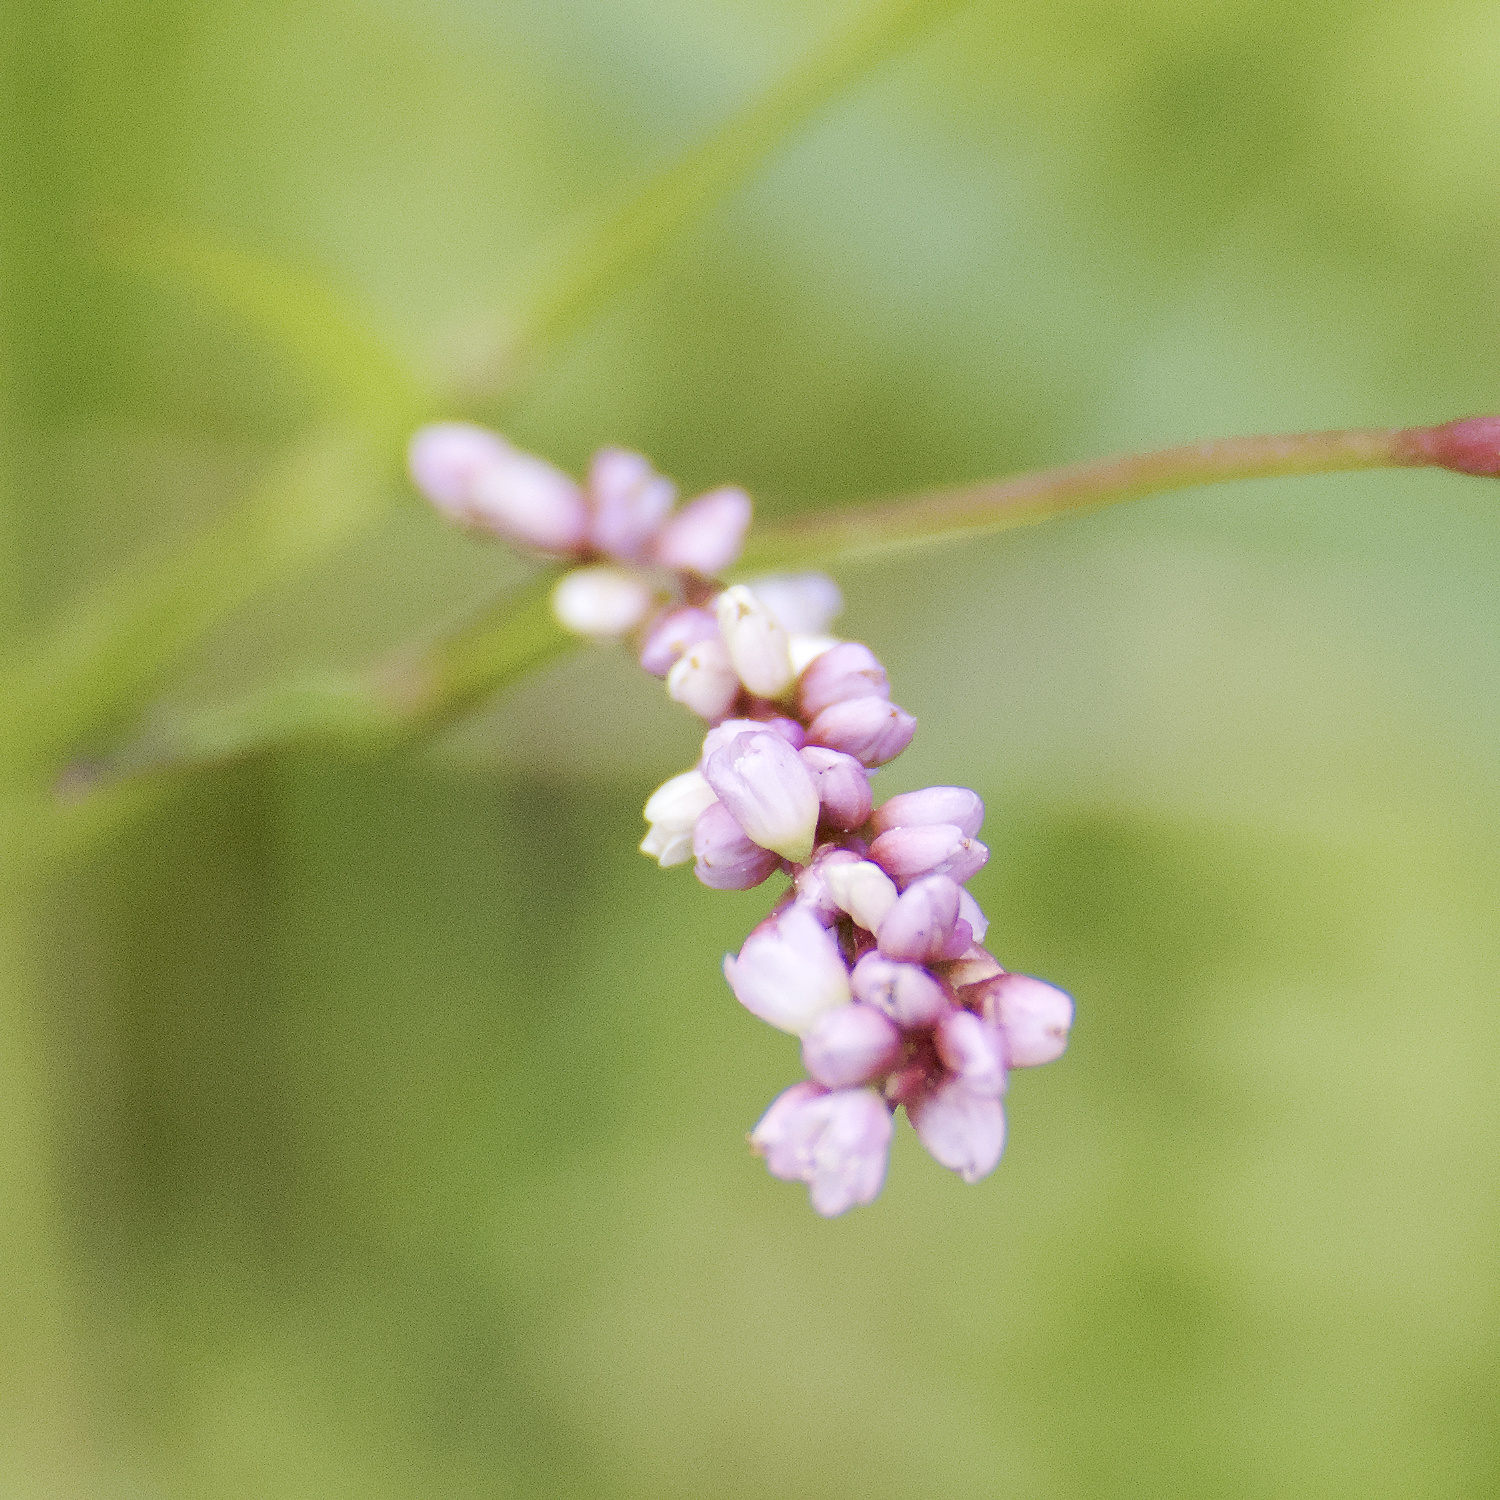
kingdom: Plantae
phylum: Tracheophyta
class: Magnoliopsida
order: Caryophyllales
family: Polygonaceae
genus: Persicaria
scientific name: Persicaria decipiens
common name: Willow-weed
